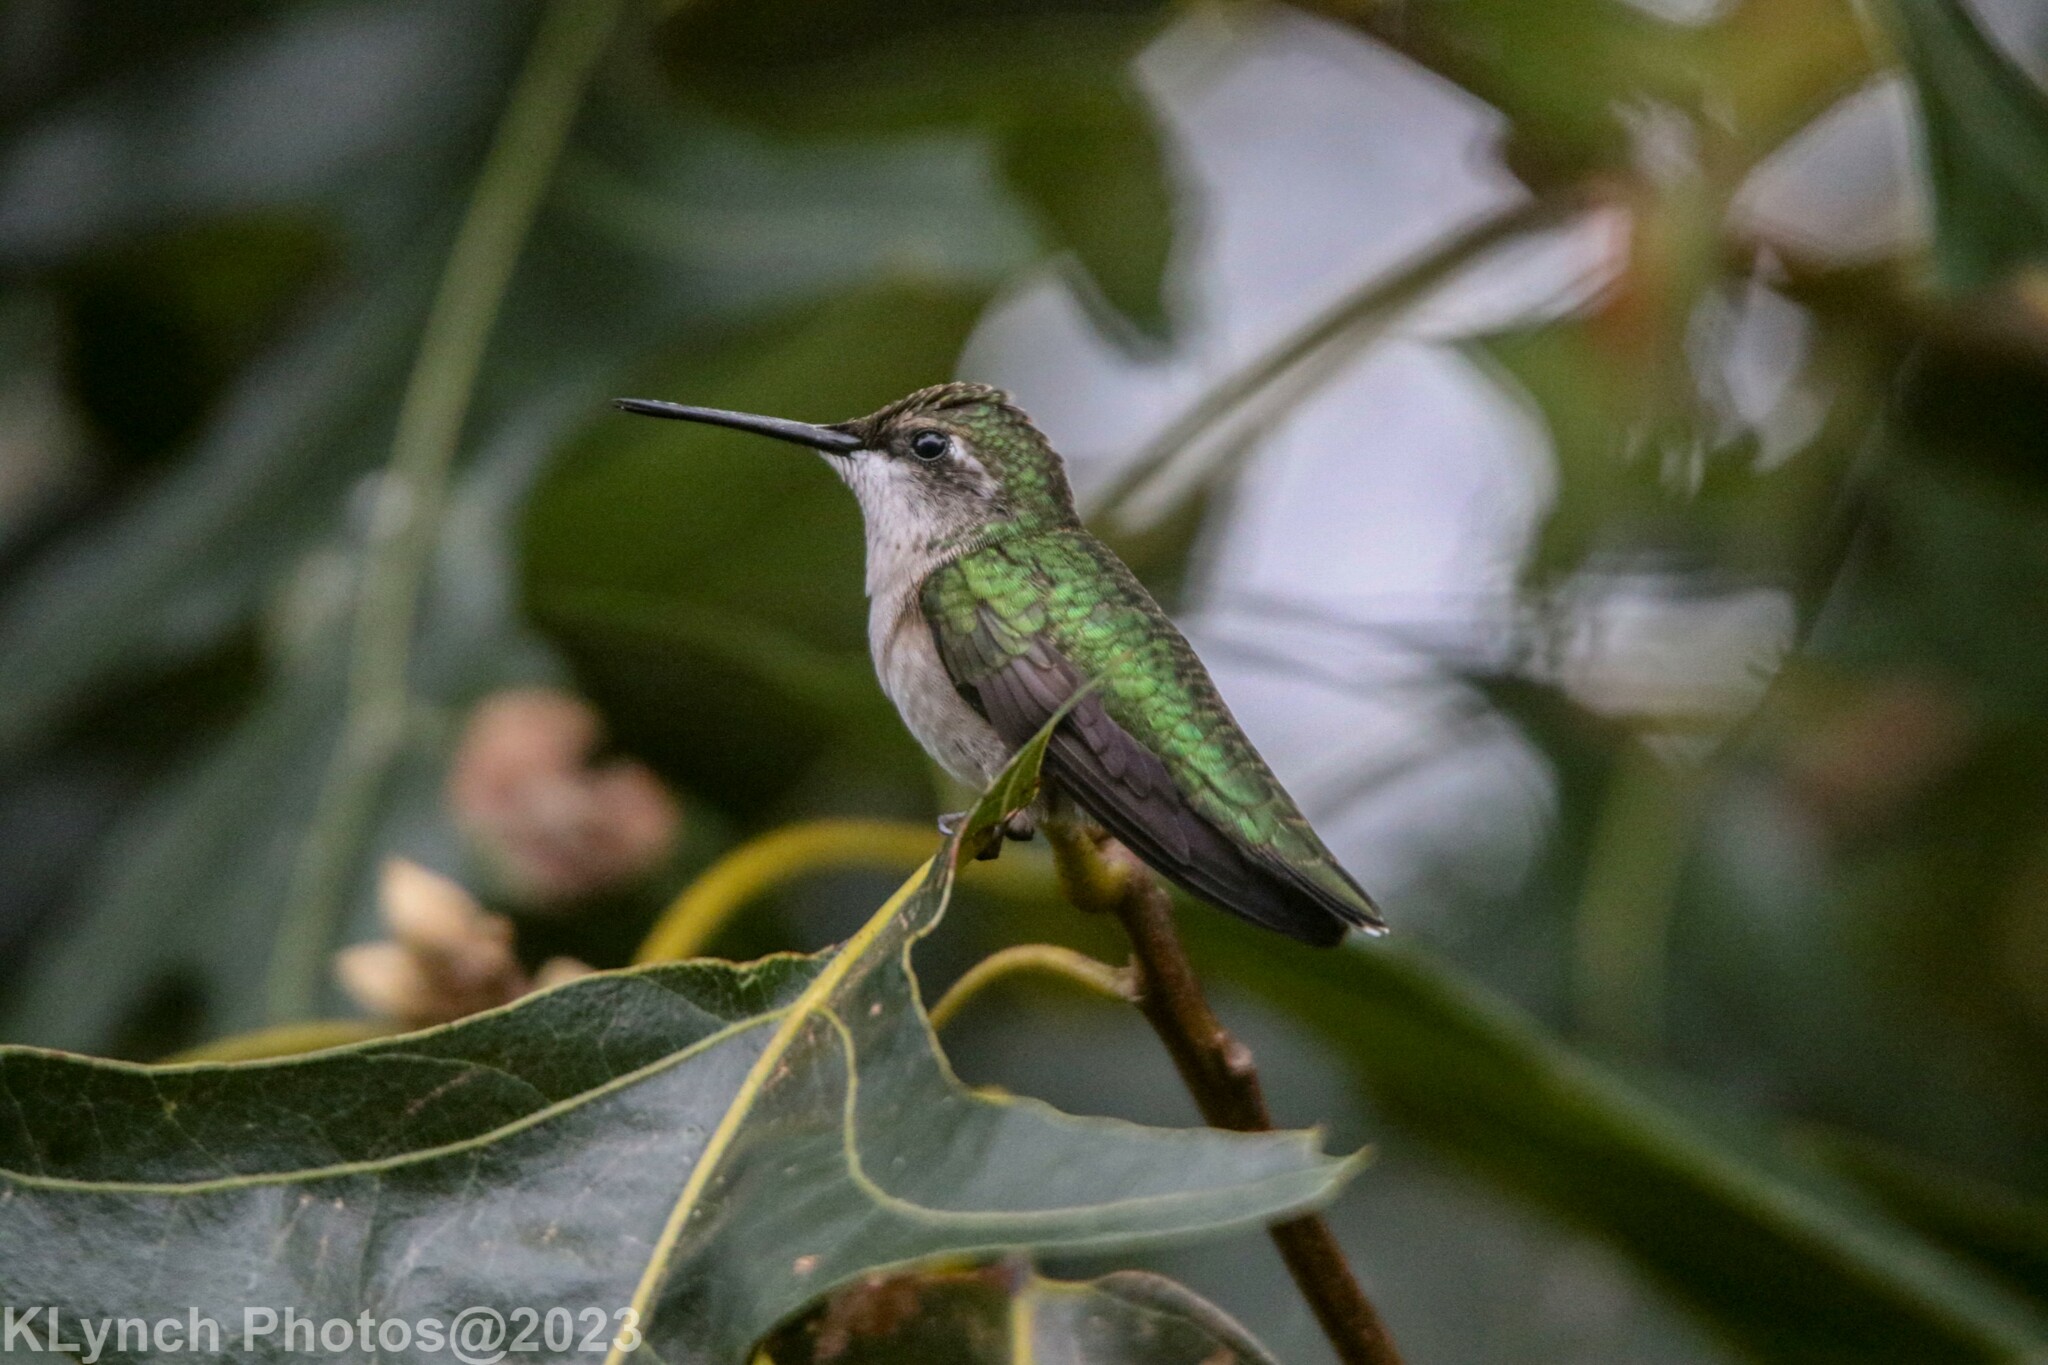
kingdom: Animalia
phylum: Chordata
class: Aves
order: Apodiformes
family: Trochilidae
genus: Archilochus
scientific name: Archilochus colubris
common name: Ruby-throated hummingbird
